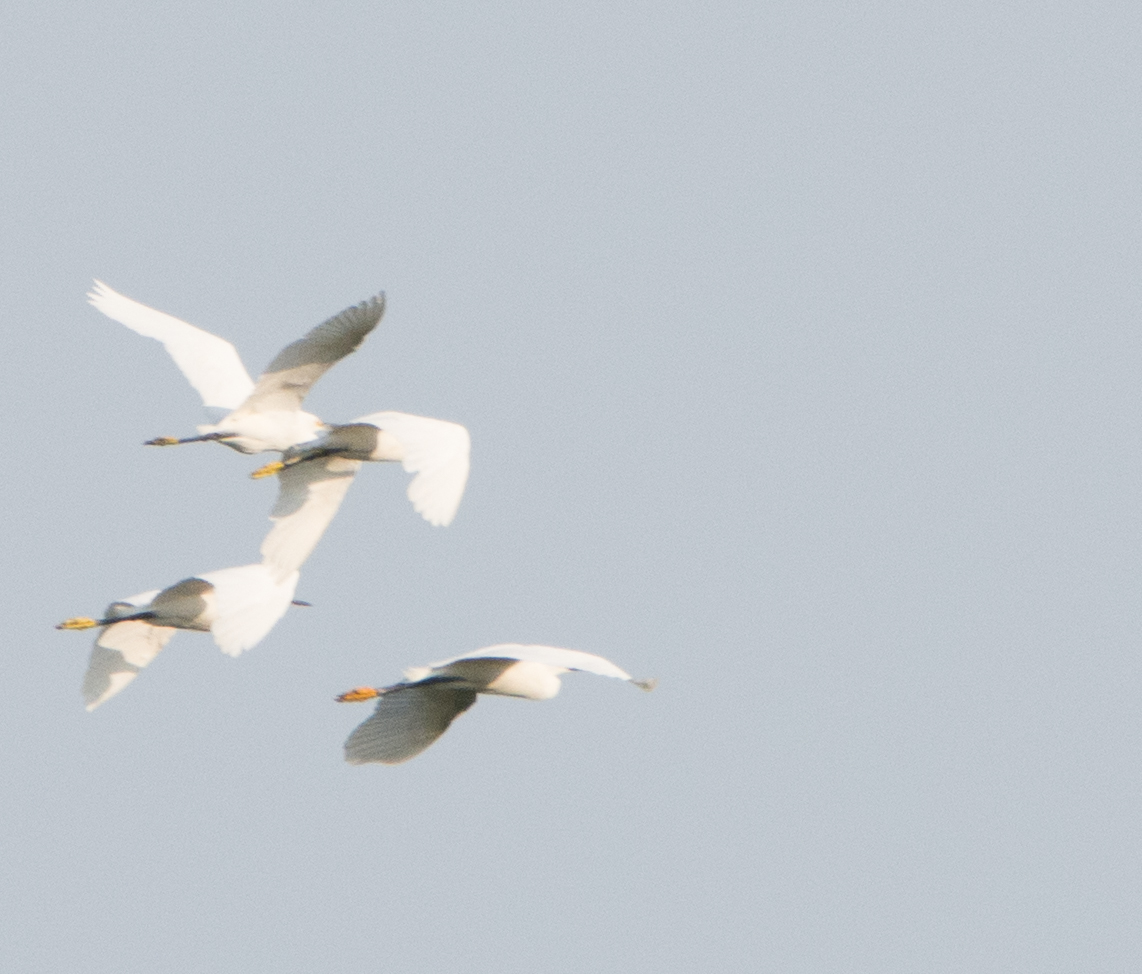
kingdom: Animalia
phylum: Chordata
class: Aves
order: Pelecaniformes
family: Ardeidae
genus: Egretta
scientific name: Egretta thula
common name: Snowy egret
